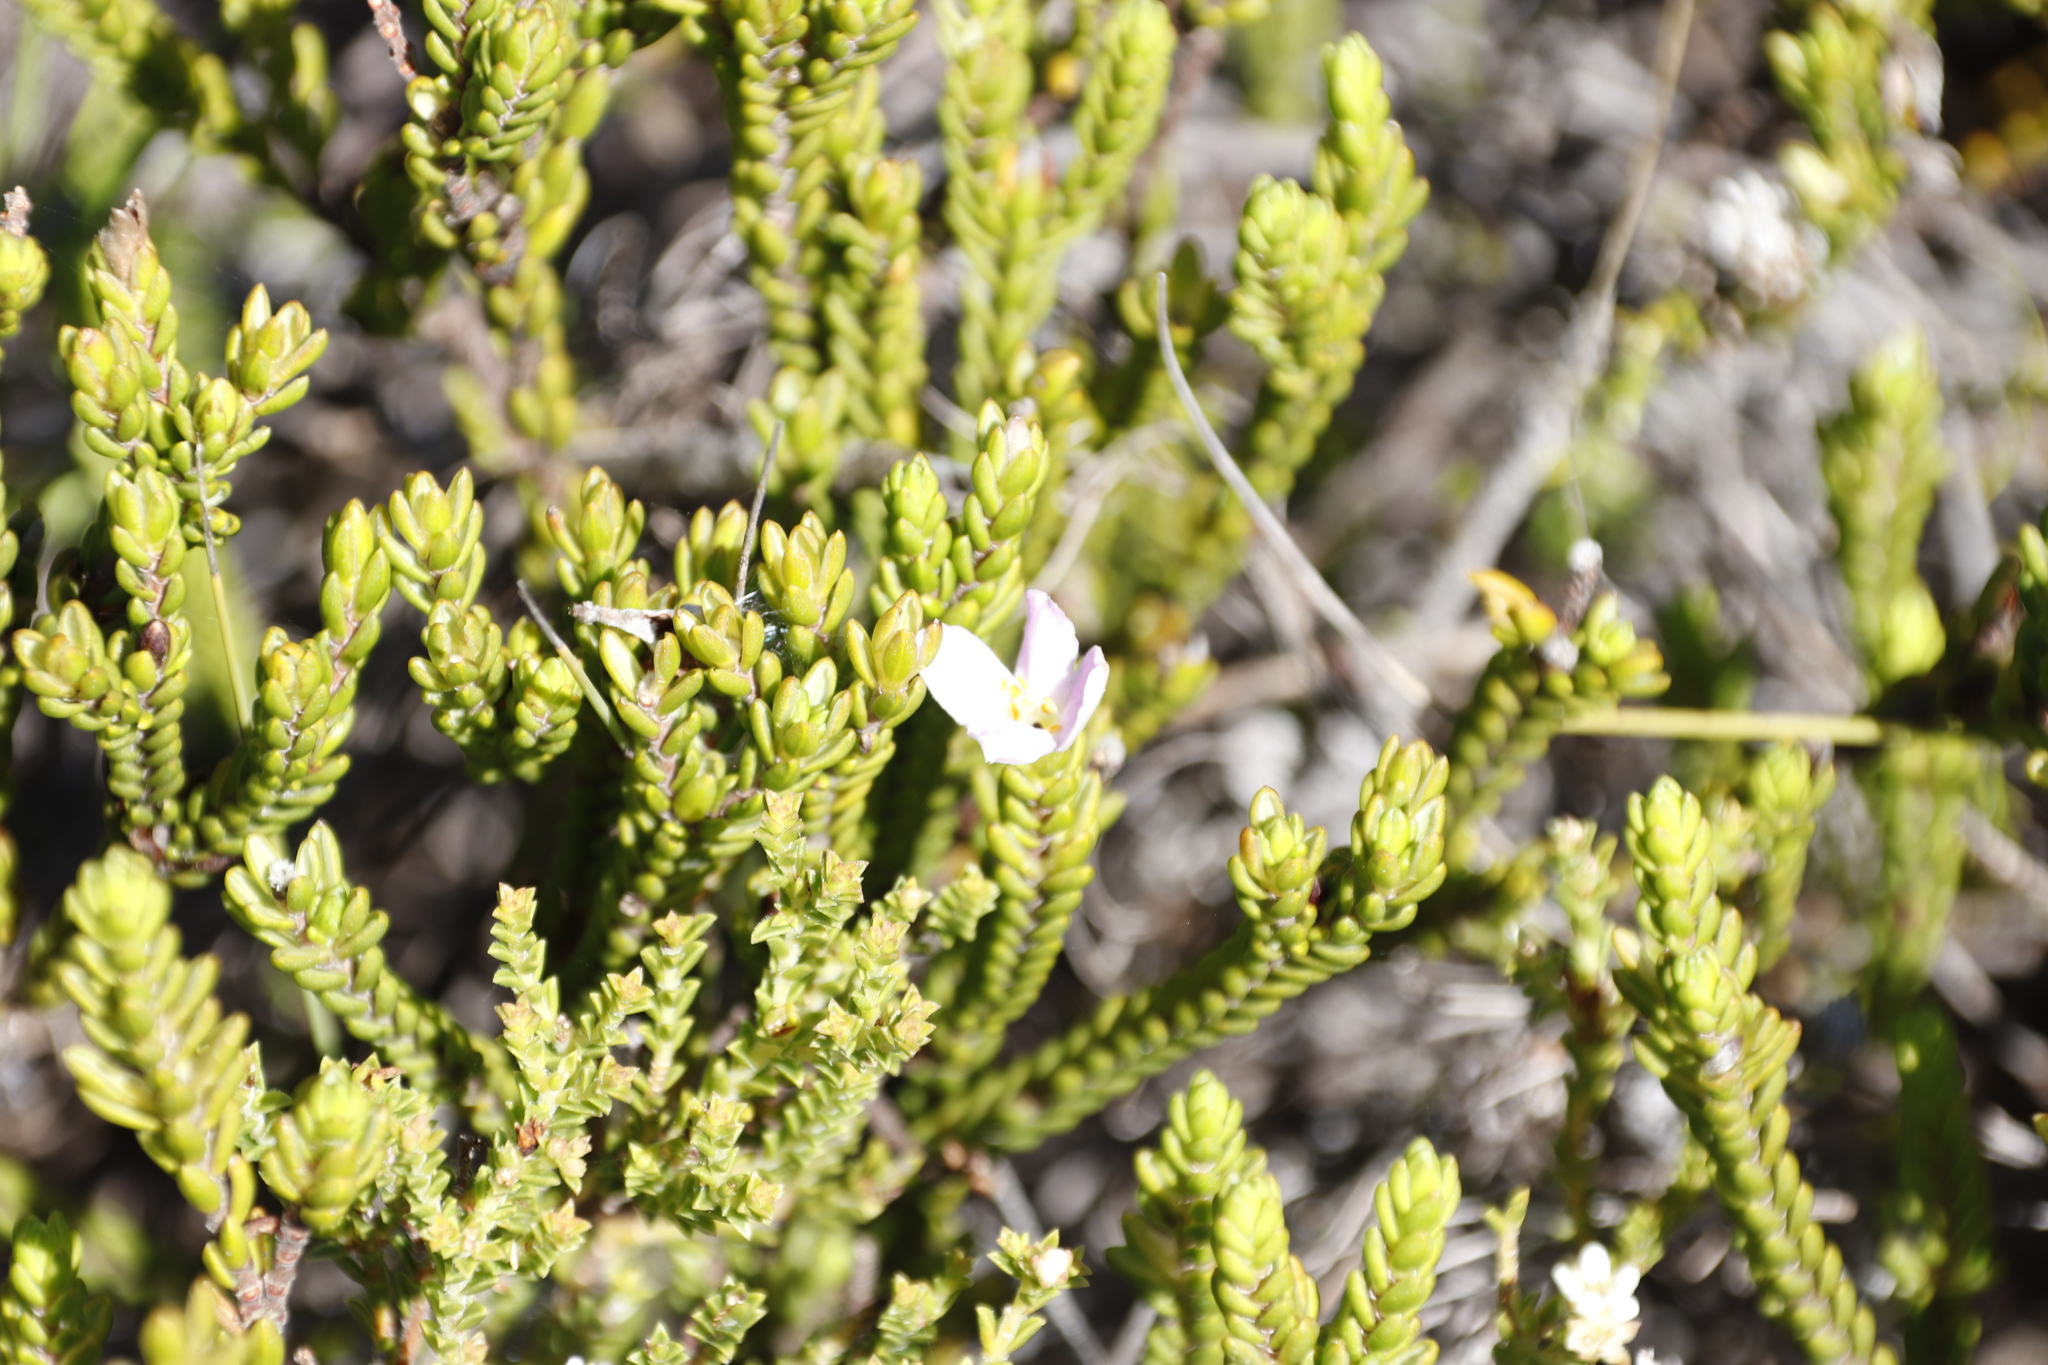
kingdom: Plantae
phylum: Tracheophyta
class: Magnoliopsida
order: Malvales
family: Thymelaeaceae
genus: Lachnaea
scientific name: Lachnaea grandiflora
